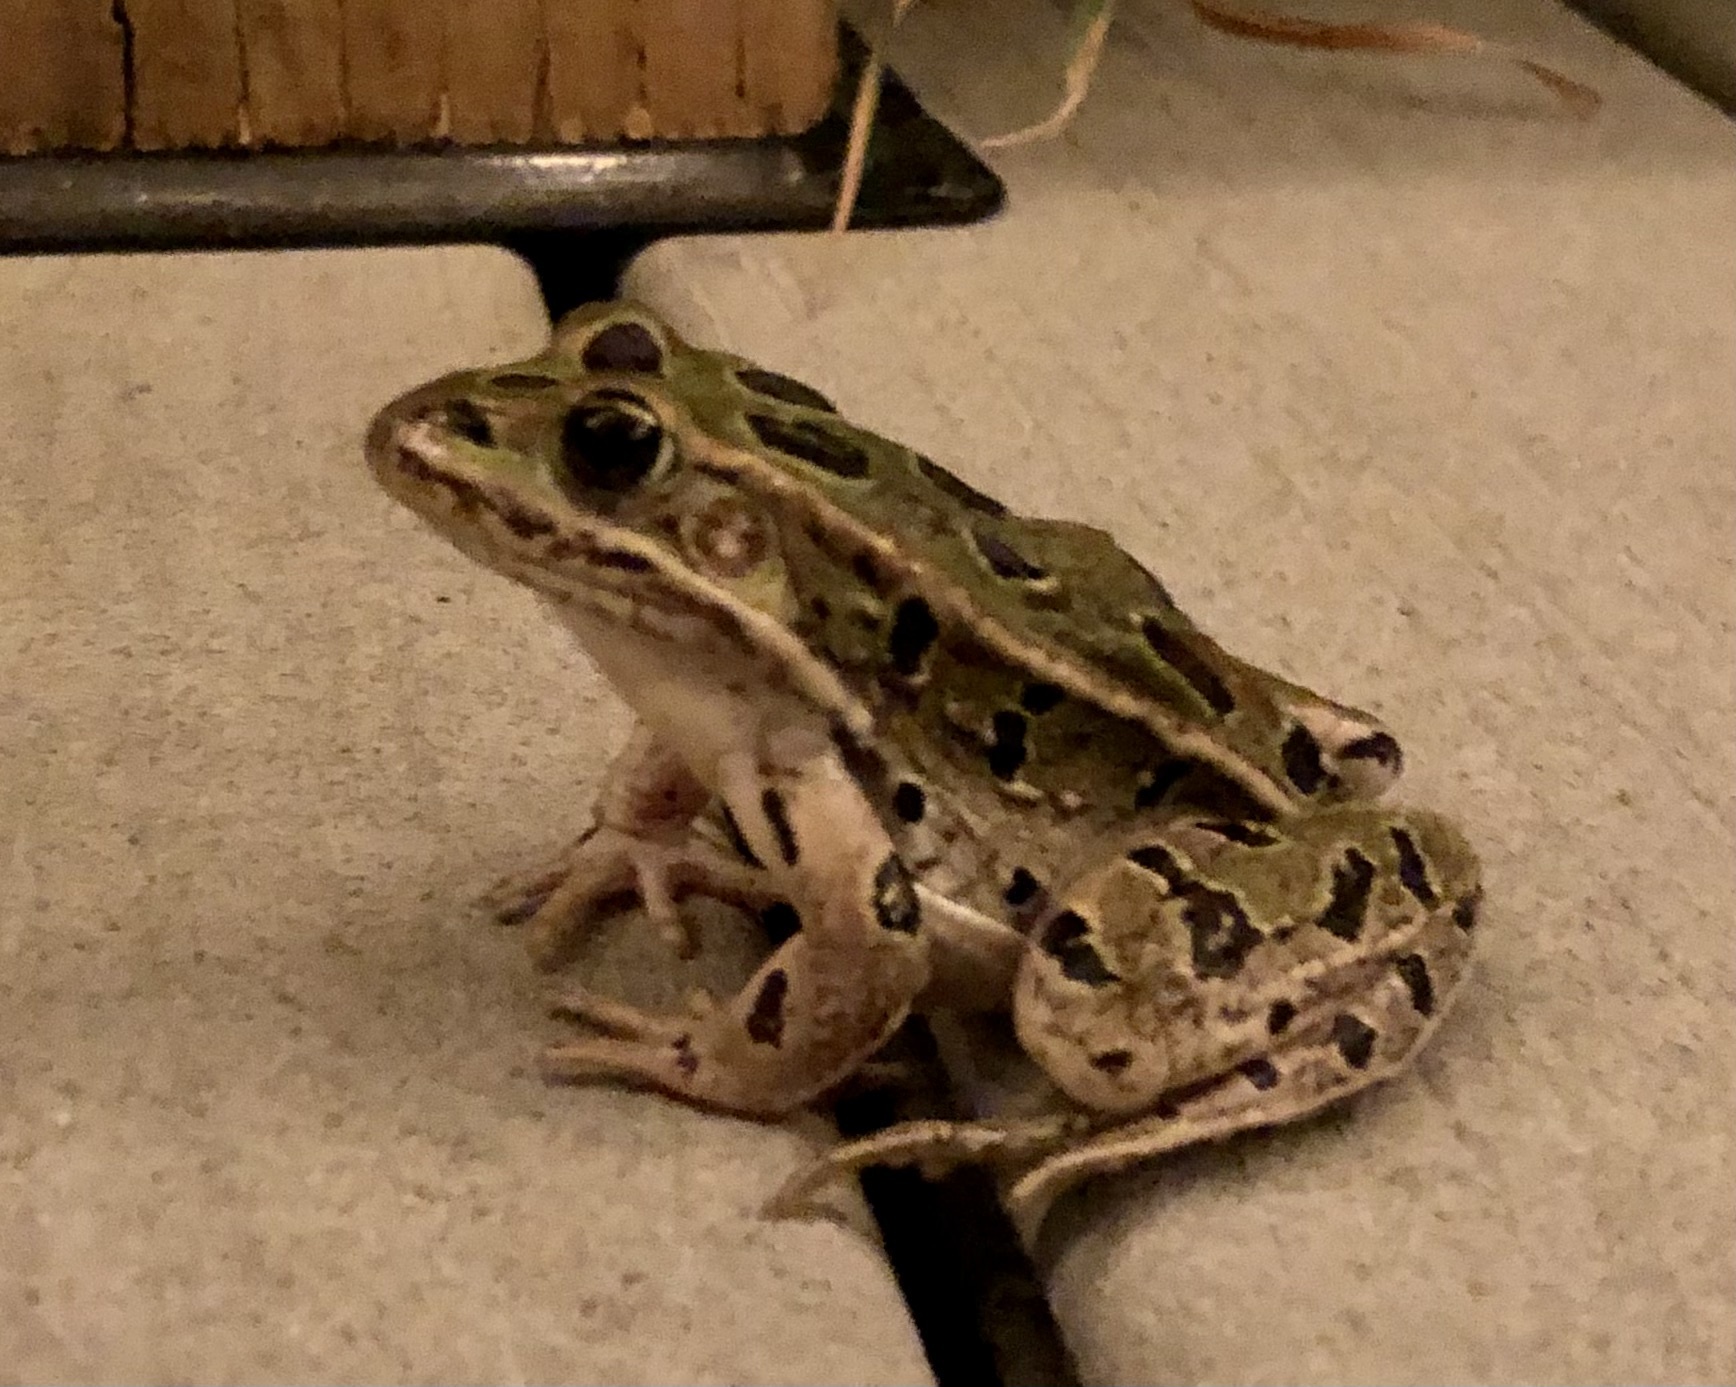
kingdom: Animalia
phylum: Chordata
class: Amphibia
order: Anura
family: Ranidae
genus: Lithobates
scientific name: Lithobates pipiens
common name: Northern leopard frog
